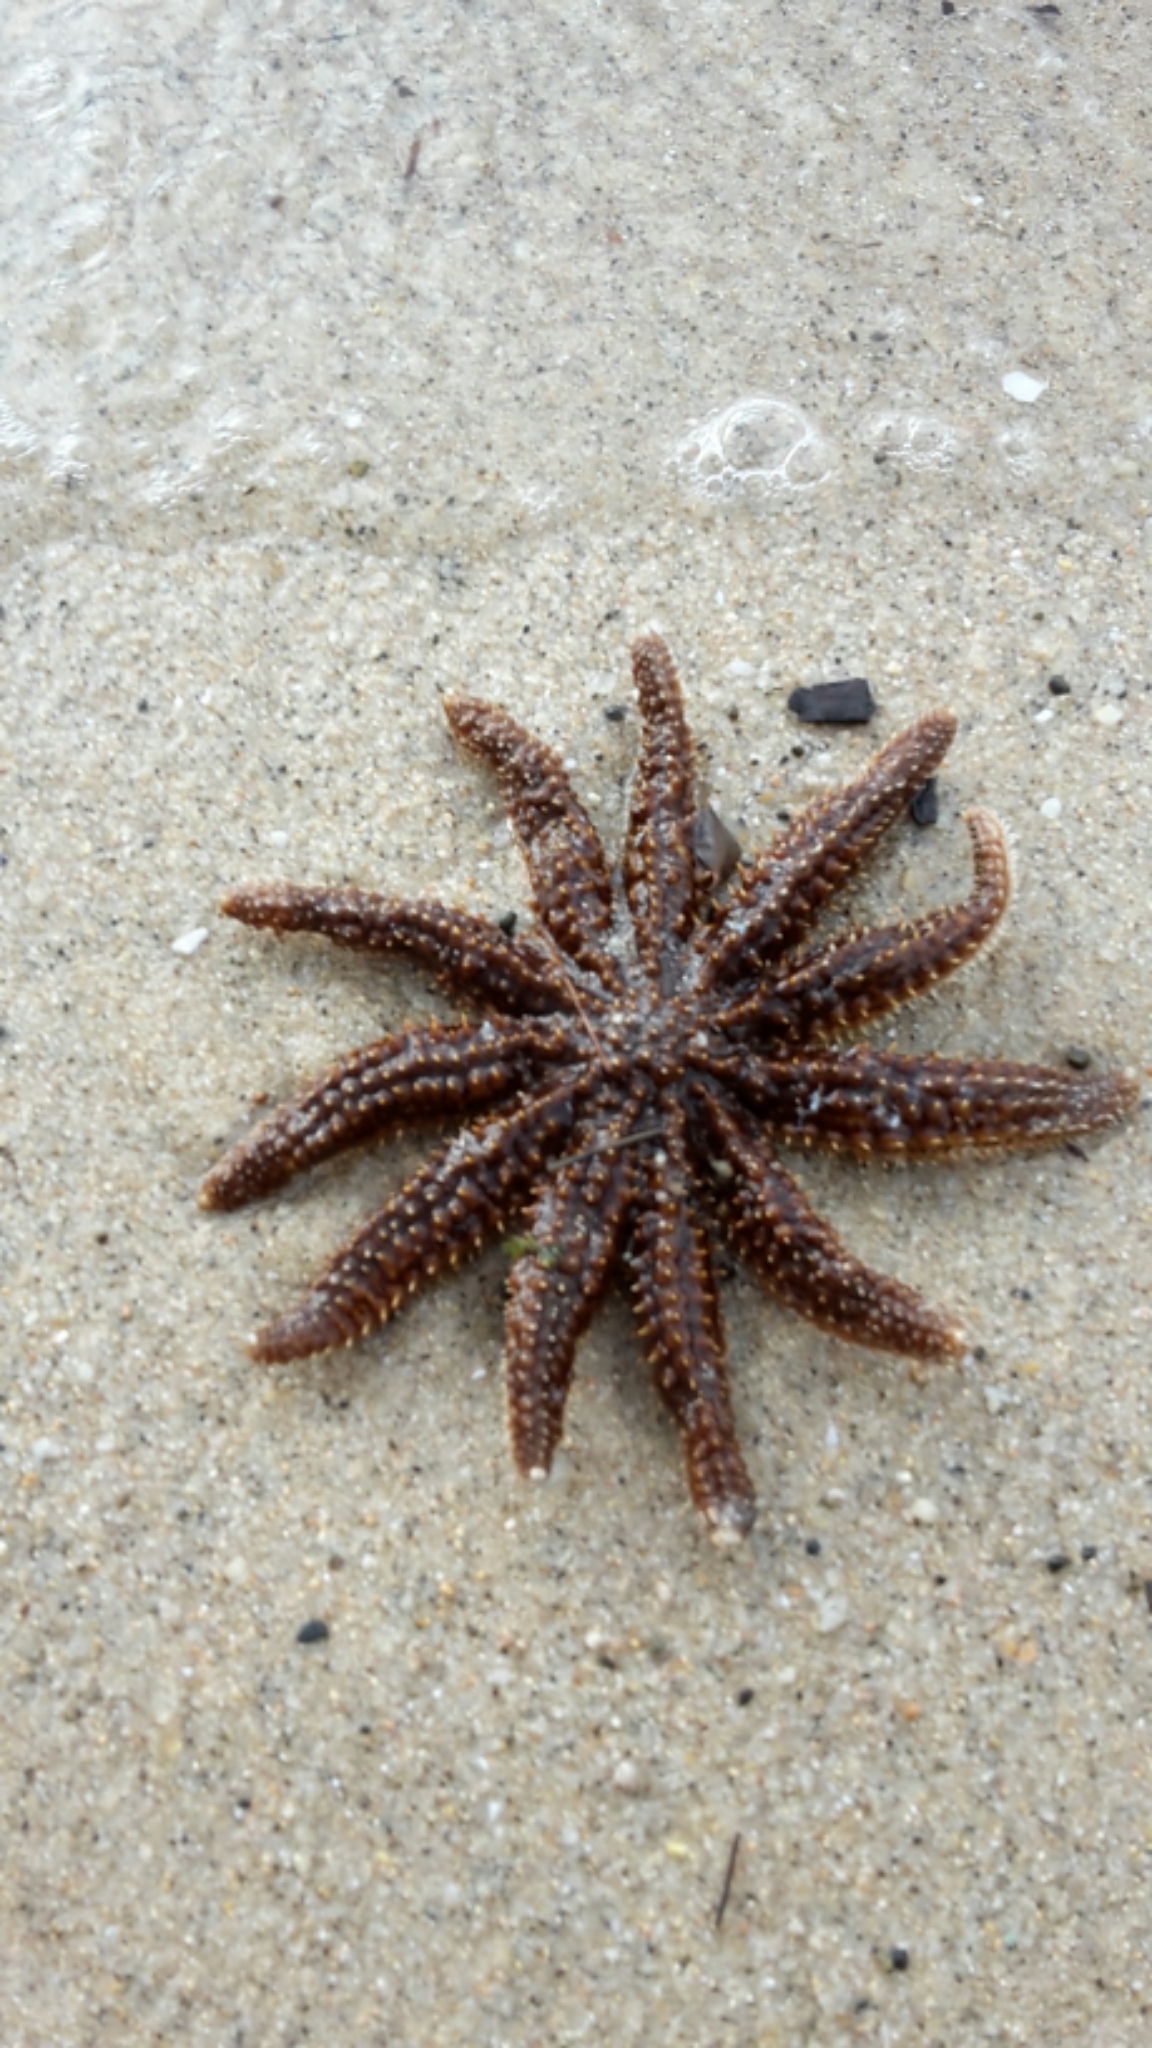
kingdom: Animalia
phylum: Echinodermata
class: Asteroidea
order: Forcipulatida
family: Asteriidae
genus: Coscinasterias
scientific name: Coscinasterias muricata
